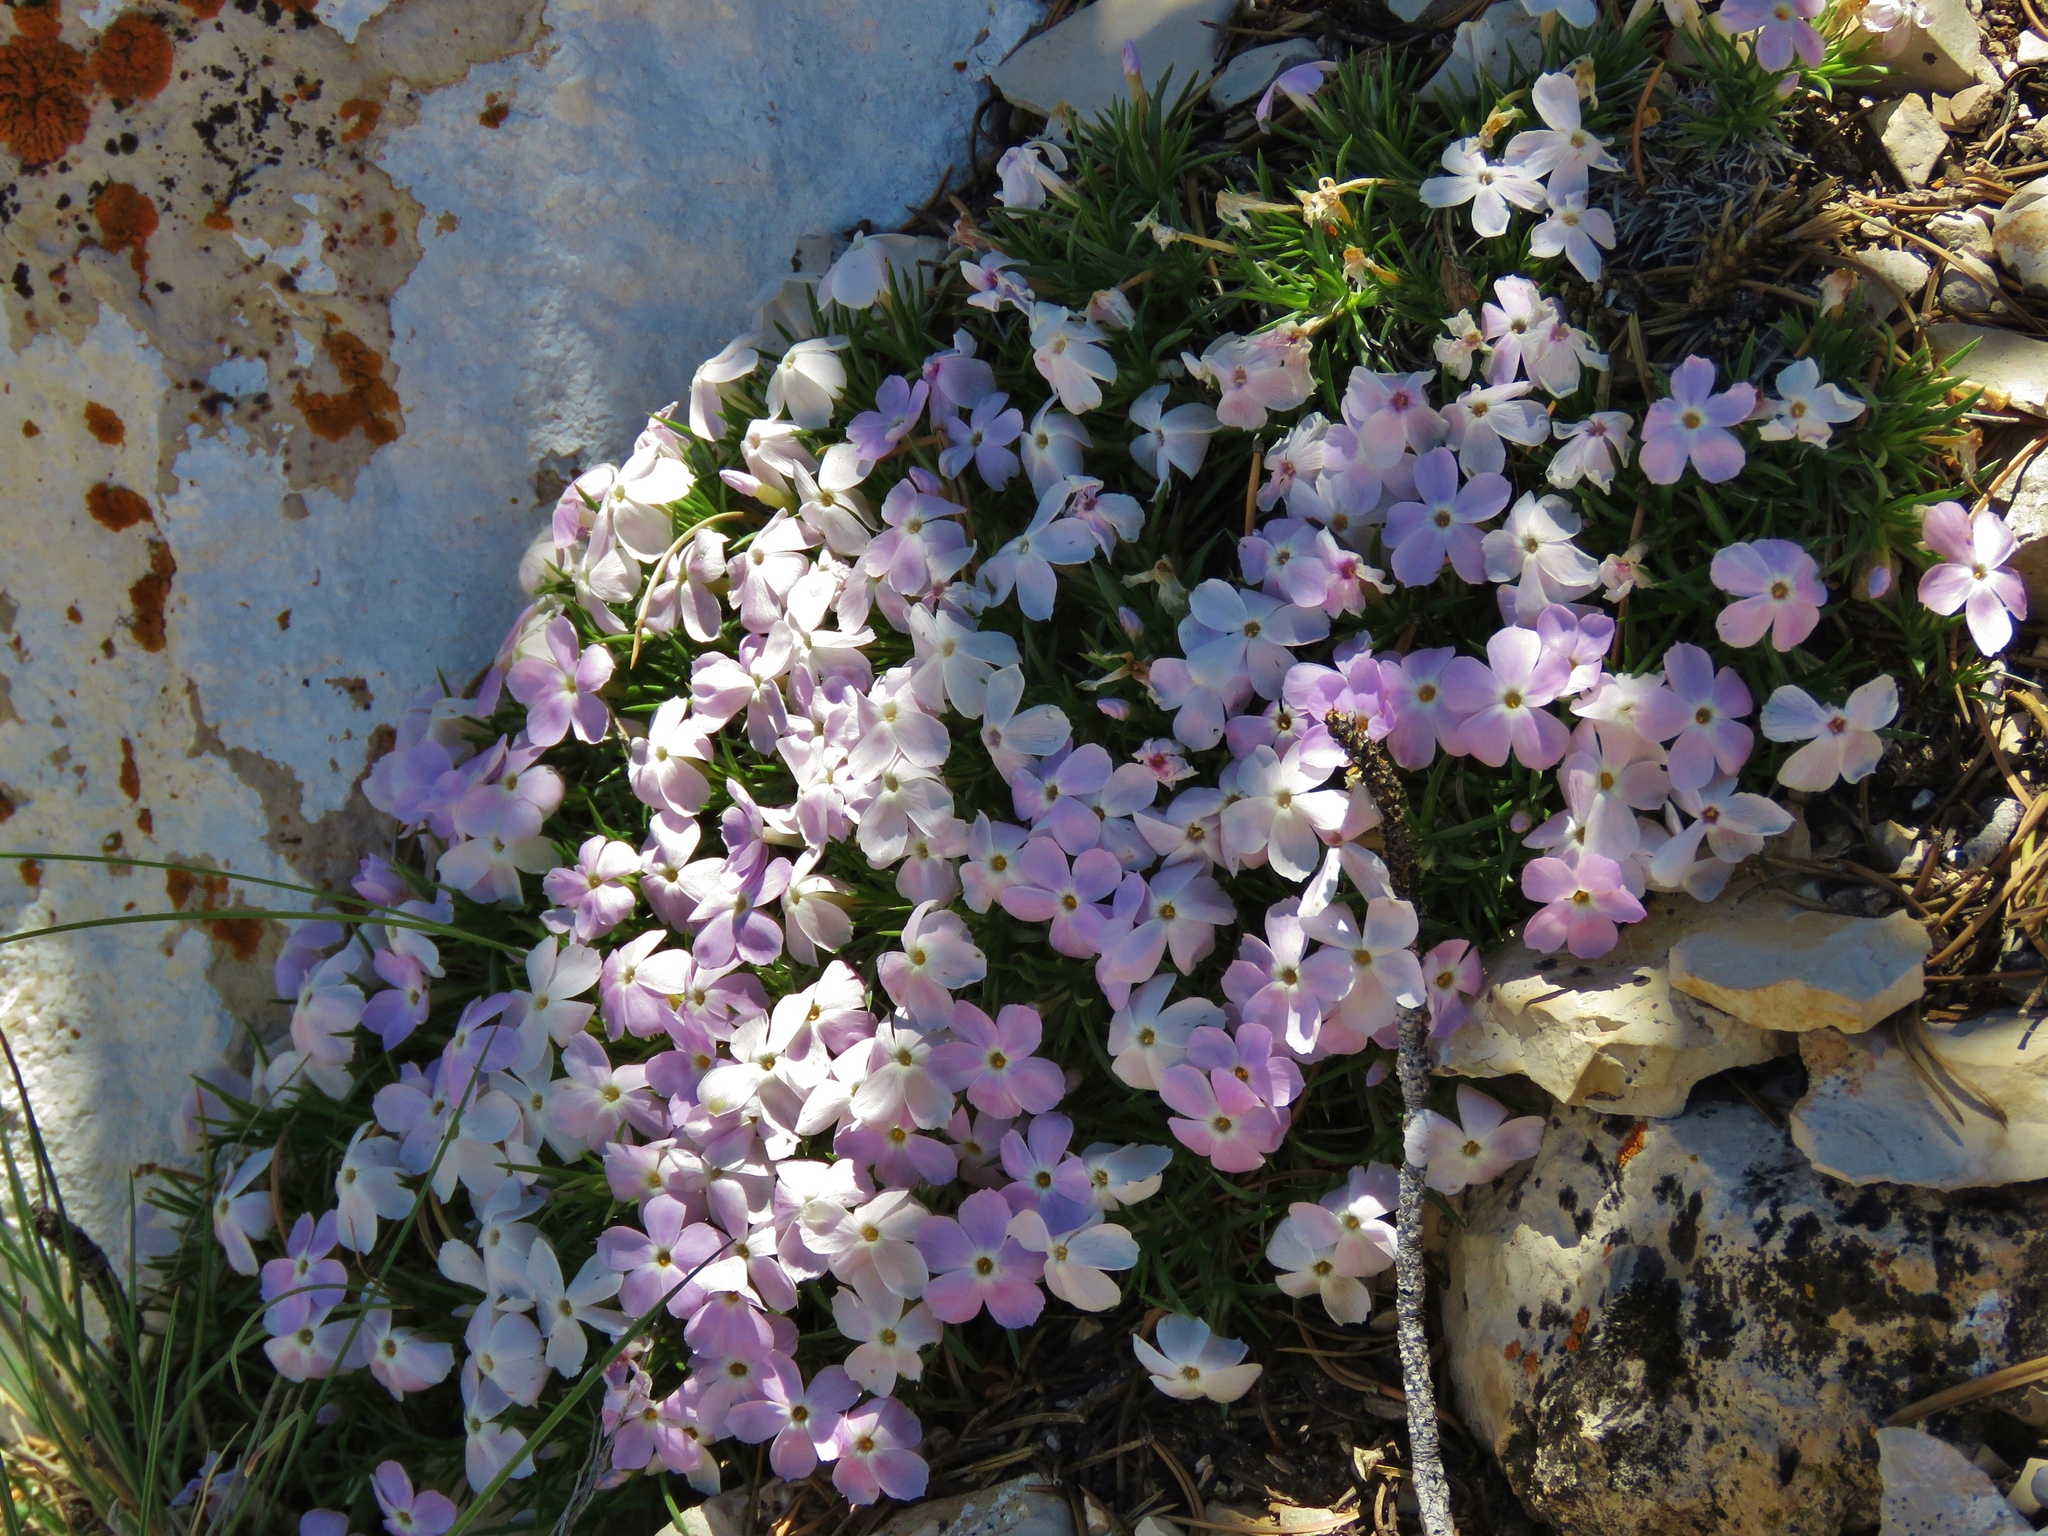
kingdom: Plantae
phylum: Tracheophyta
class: Magnoliopsida
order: Ericales
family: Polemoniaceae
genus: Phlox
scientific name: Phlox austromontana
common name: Desert phlox
